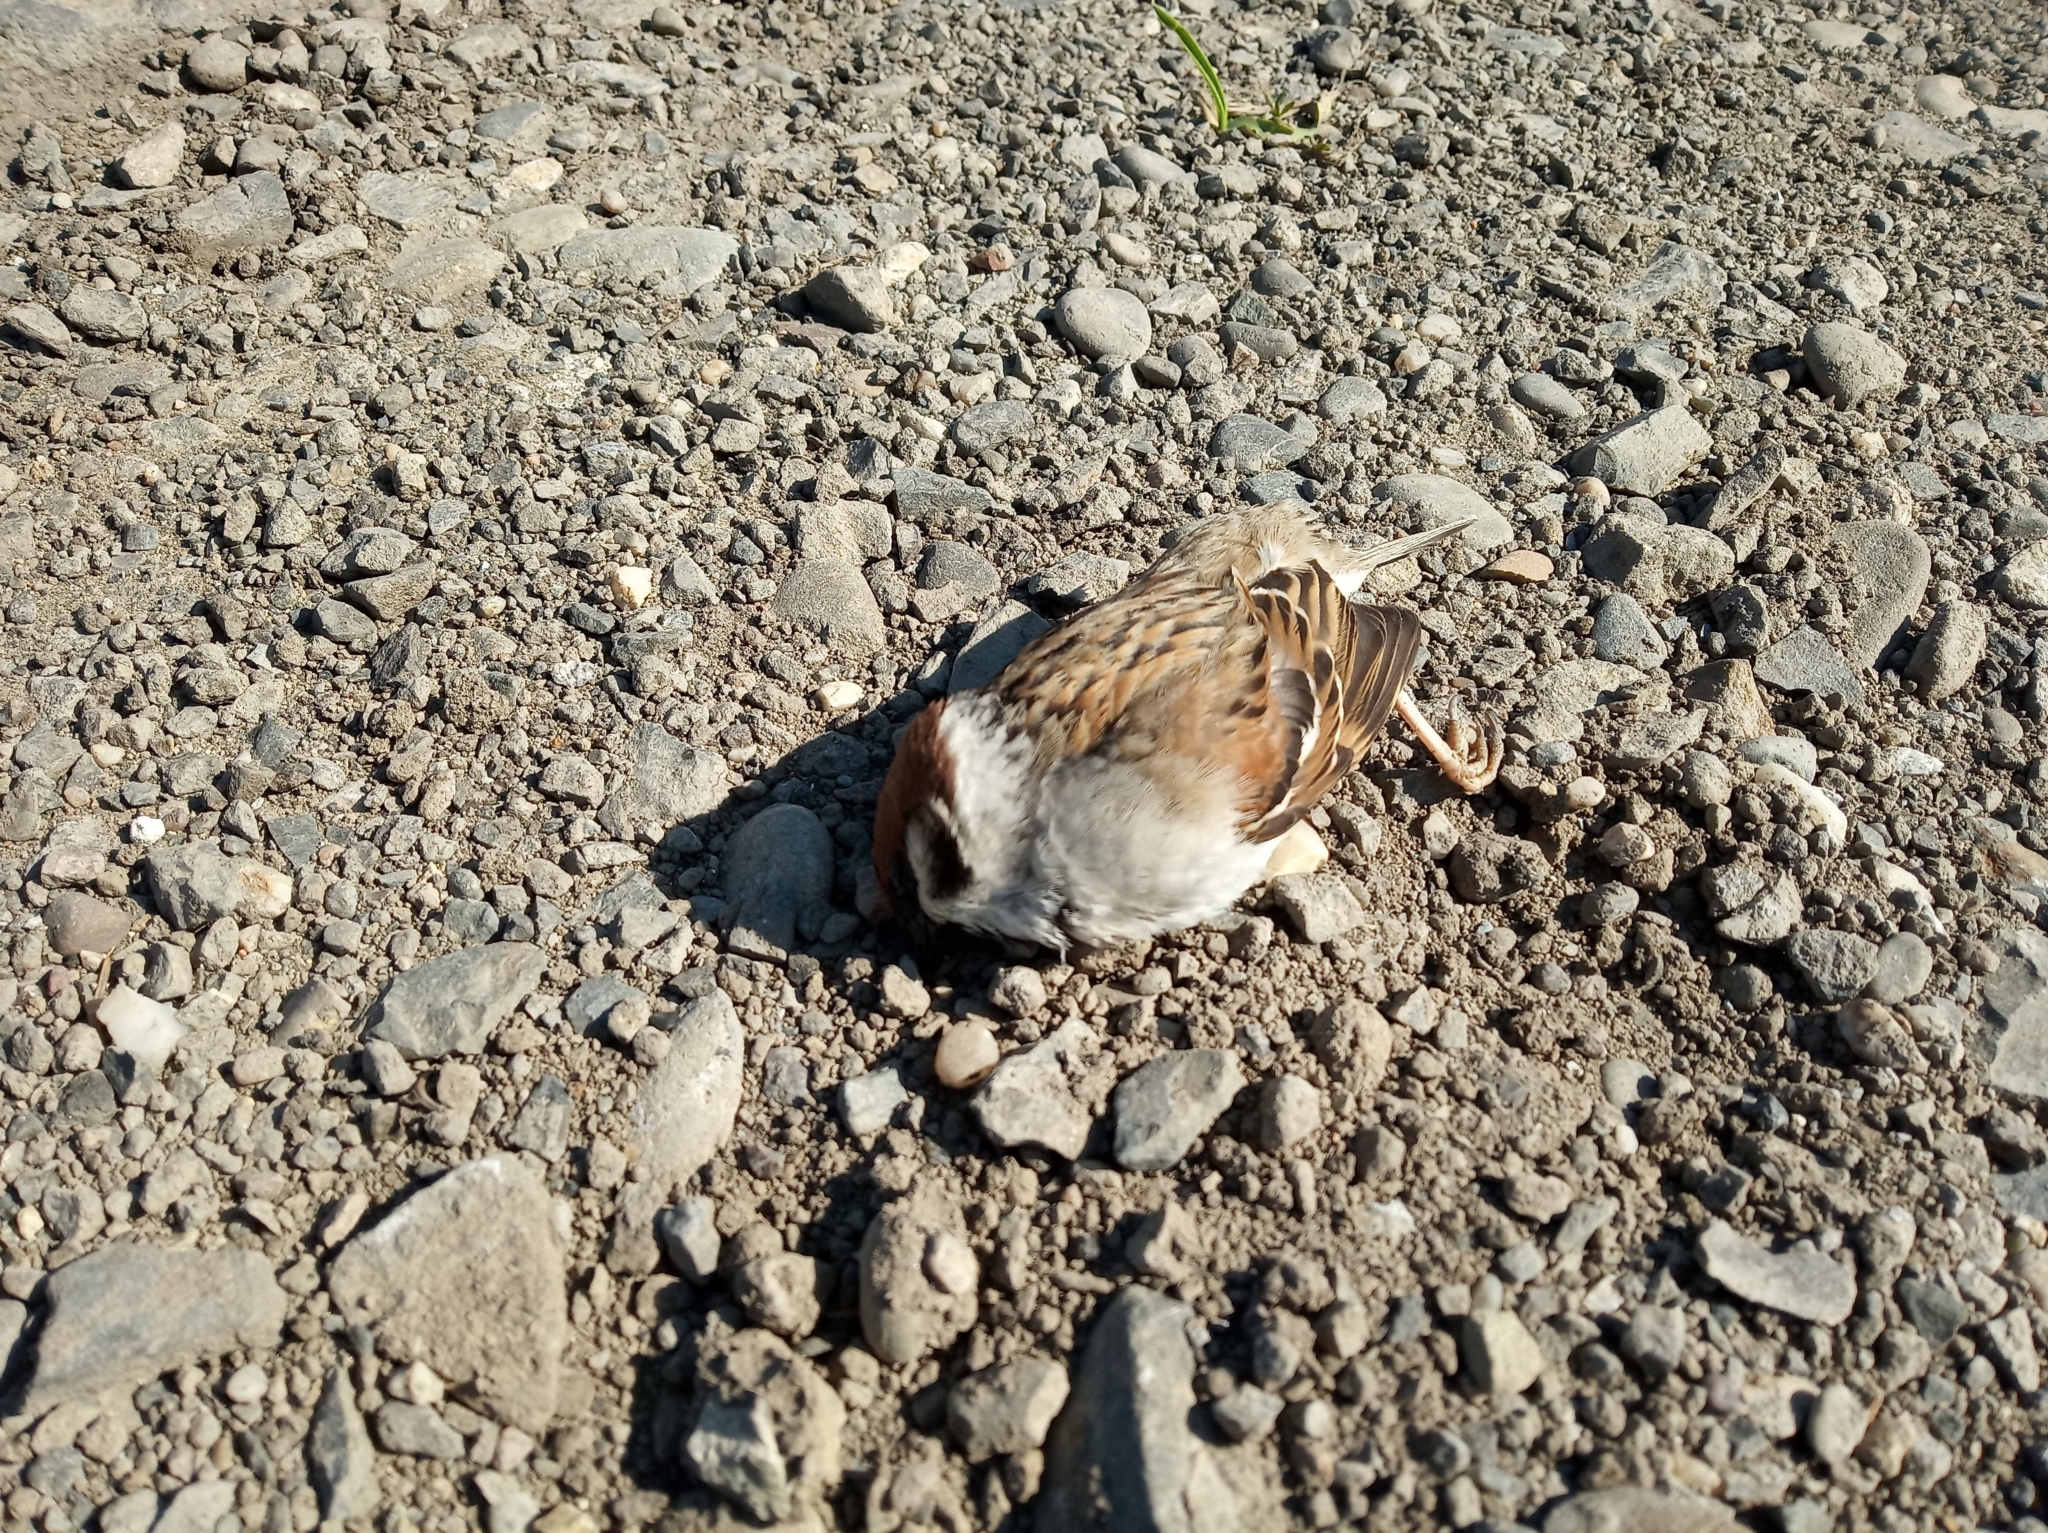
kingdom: Animalia
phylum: Chordata
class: Aves
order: Passeriformes
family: Passeridae
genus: Passer
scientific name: Passer montanus
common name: Eurasian tree sparrow
